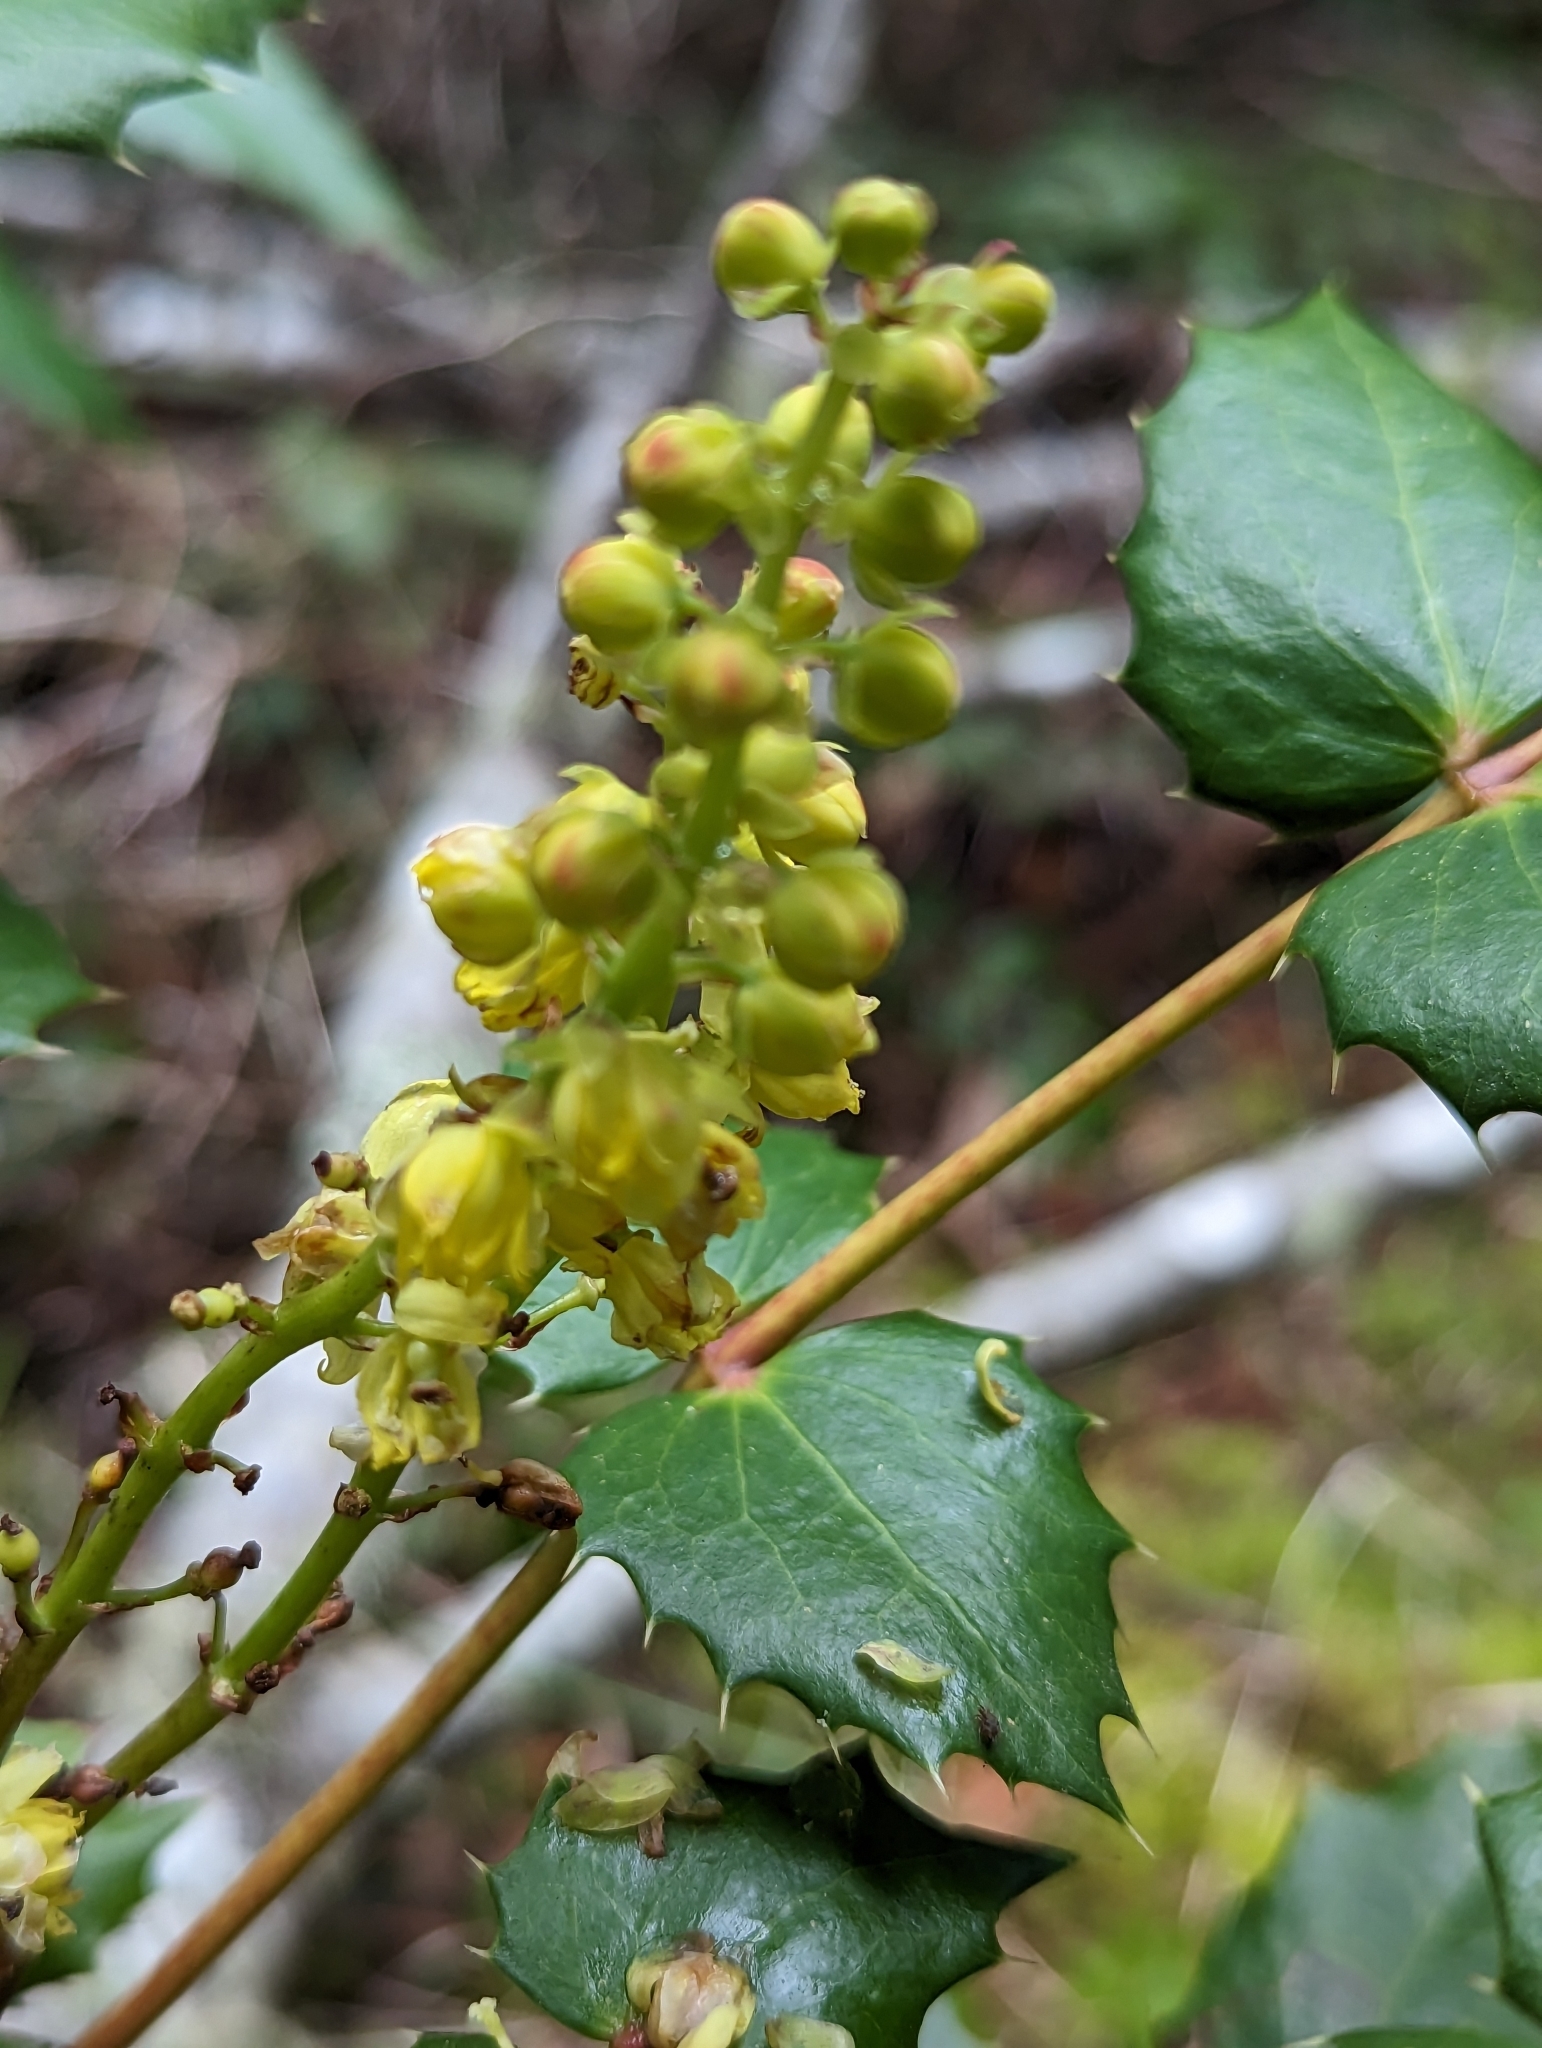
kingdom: Plantae
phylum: Tracheophyta
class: Magnoliopsida
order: Ranunculales
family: Berberidaceae
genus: Mahonia
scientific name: Mahonia nervosa
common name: Cascade oregon-grape
